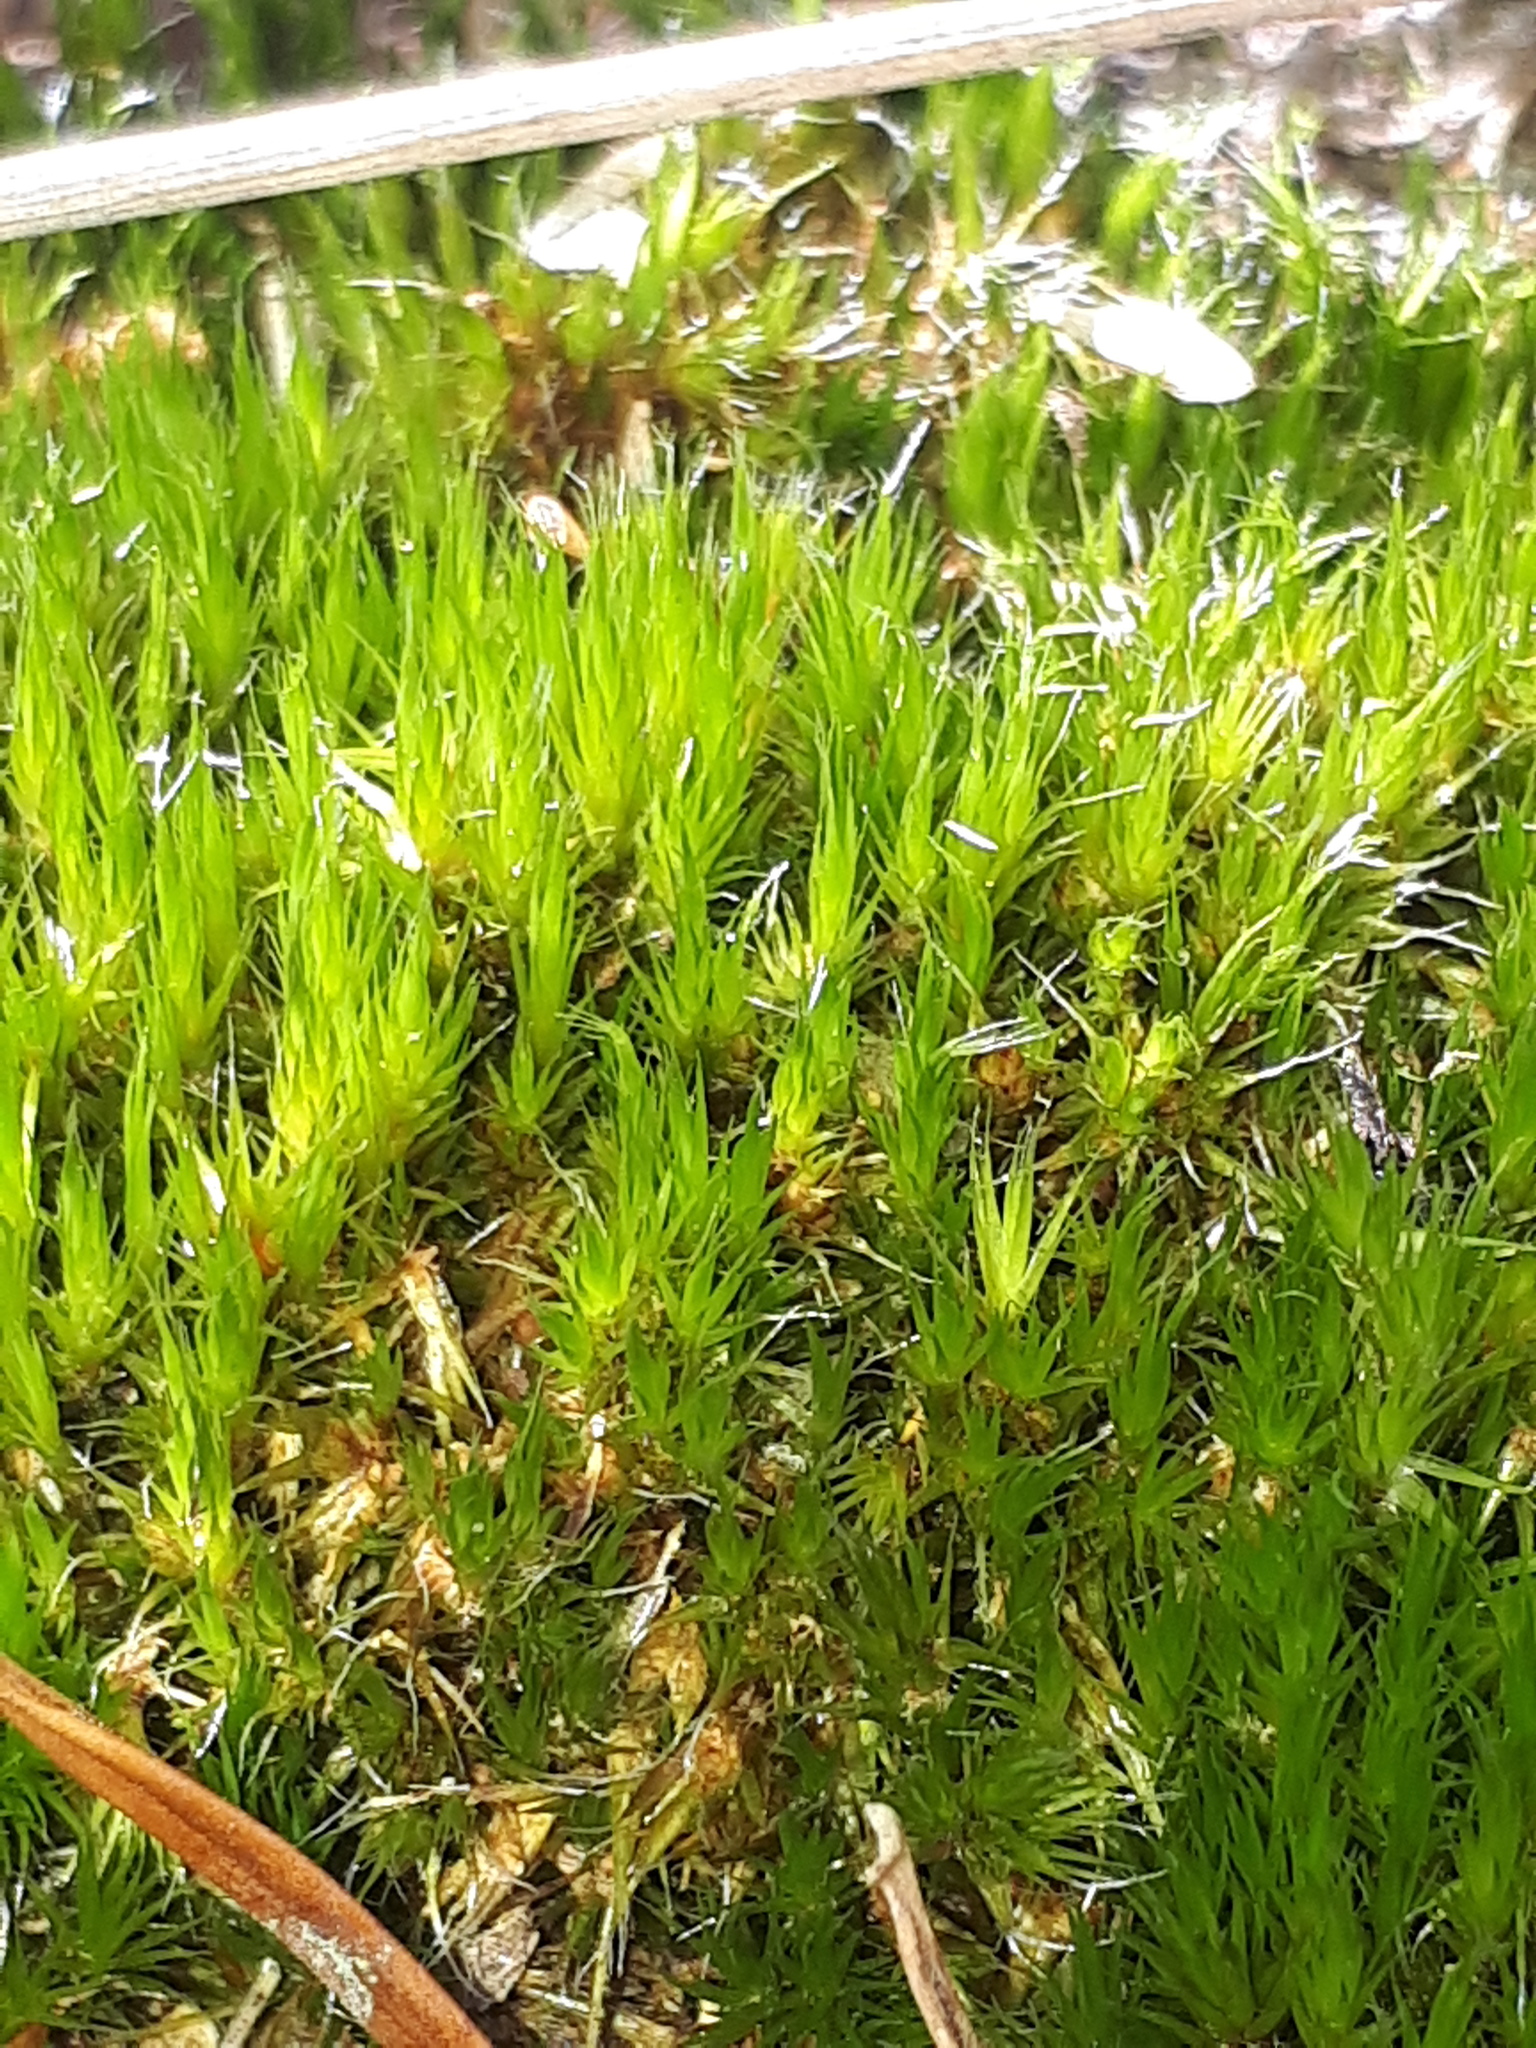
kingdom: Plantae
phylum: Bryophyta
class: Bryopsida
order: Dicranales
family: Leucobryaceae
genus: Campylopus
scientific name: Campylopus introflexus
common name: Heath star moss
